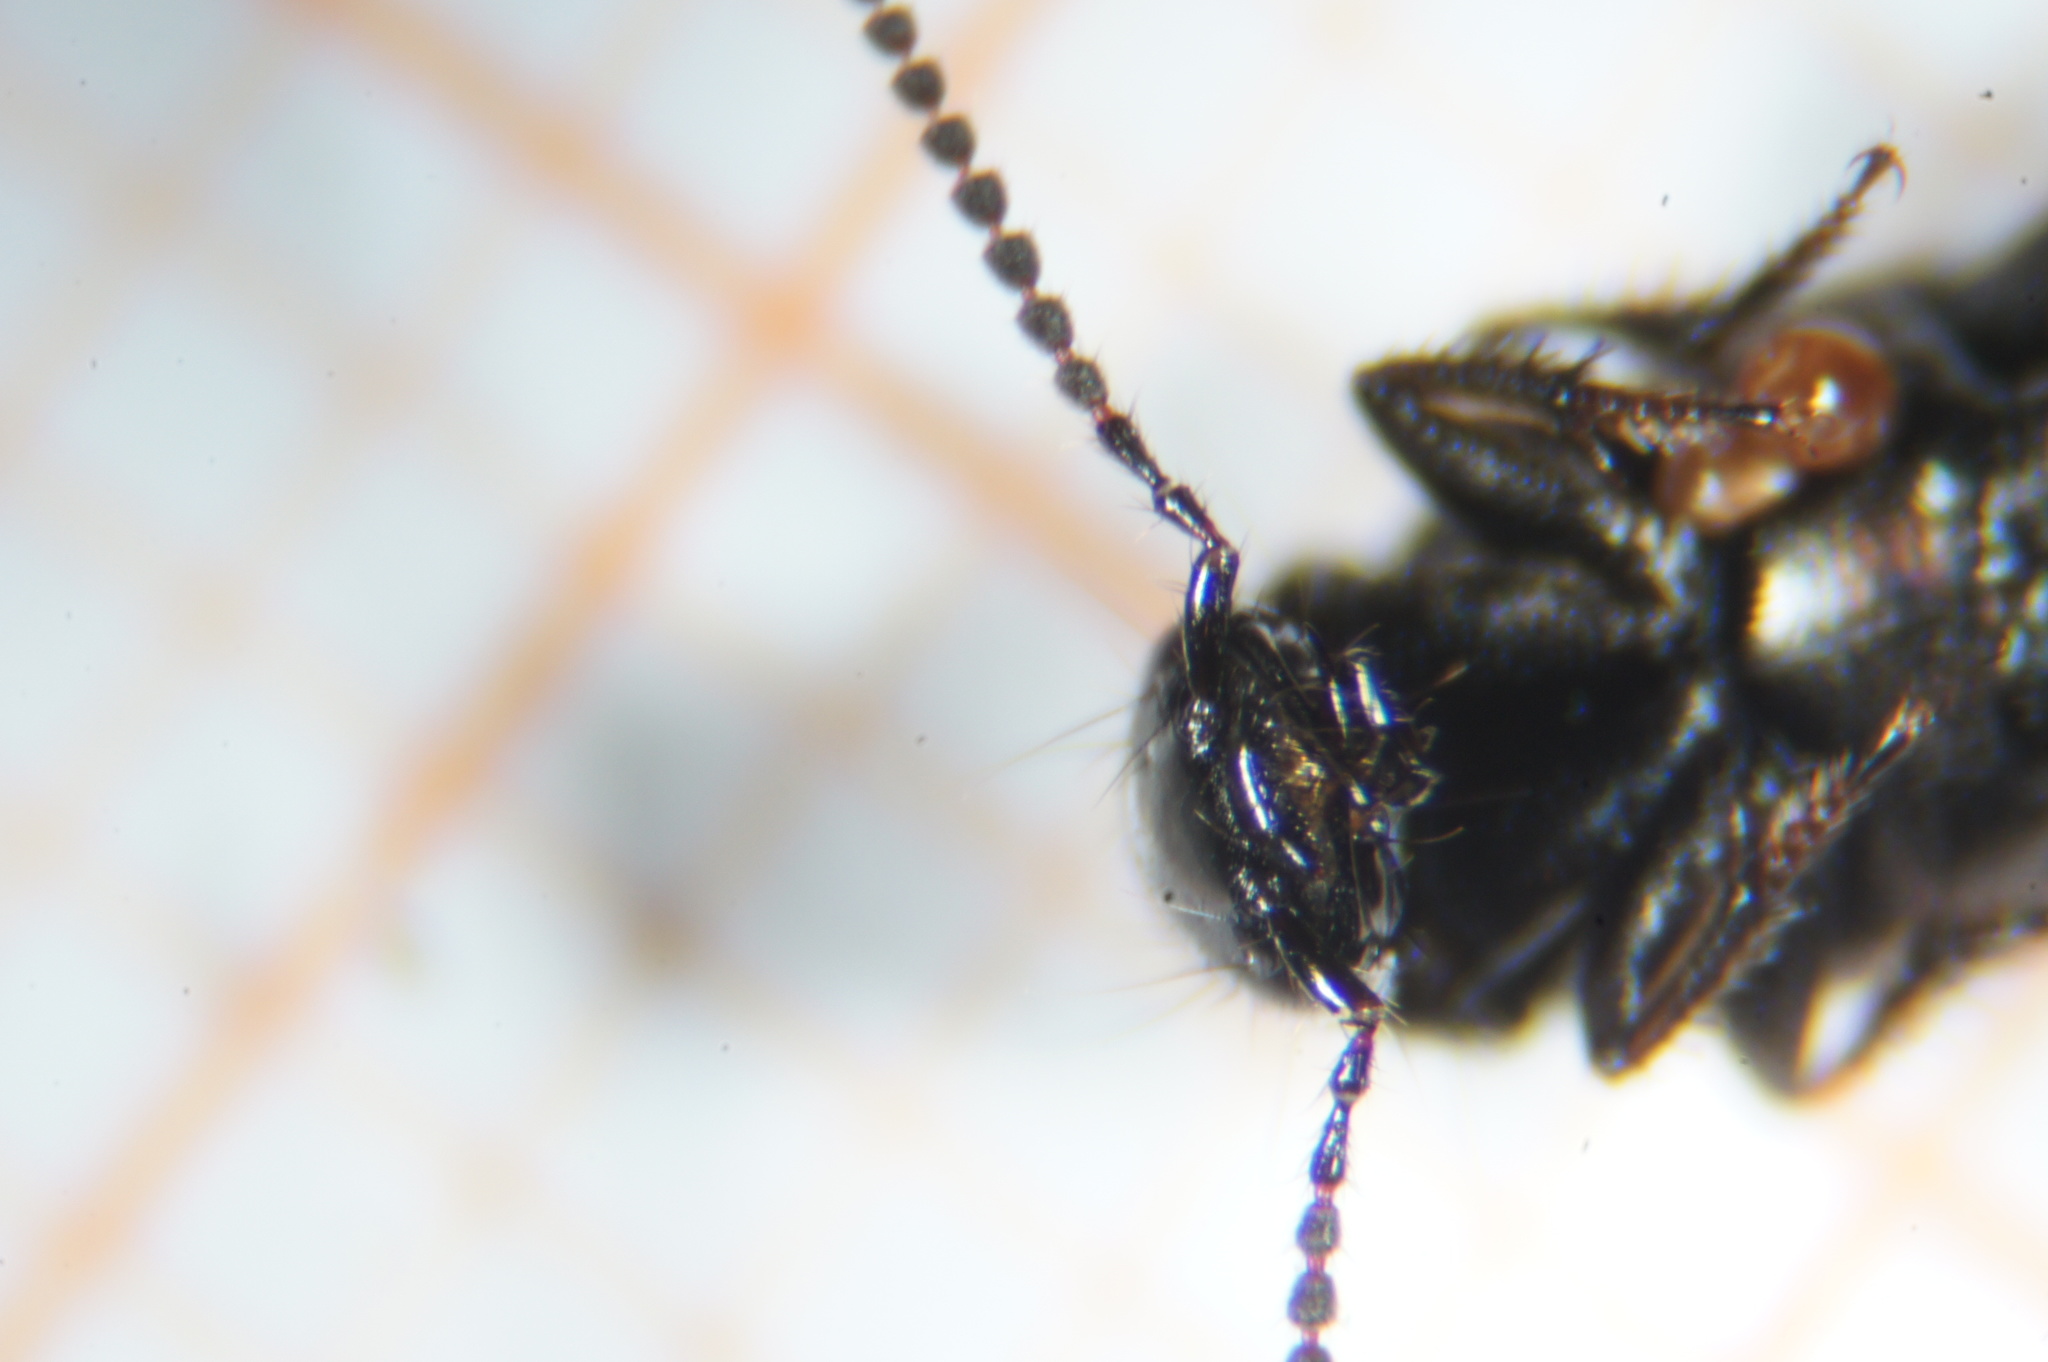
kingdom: Animalia
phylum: Arthropoda
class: Insecta
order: Coleoptera
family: Staphylinidae
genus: Philonthus
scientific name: Philonthus carbonarius
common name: Staph beetle
